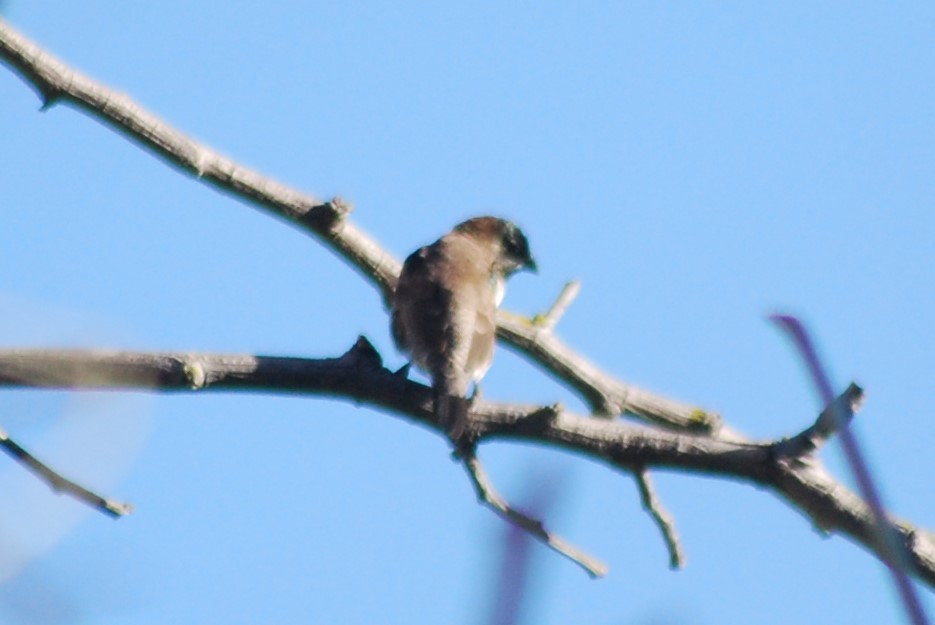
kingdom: Animalia
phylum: Chordata
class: Aves
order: Passeriformes
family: Estrildidae
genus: Lonchura
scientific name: Lonchura cucullata
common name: Bronze mannikin
